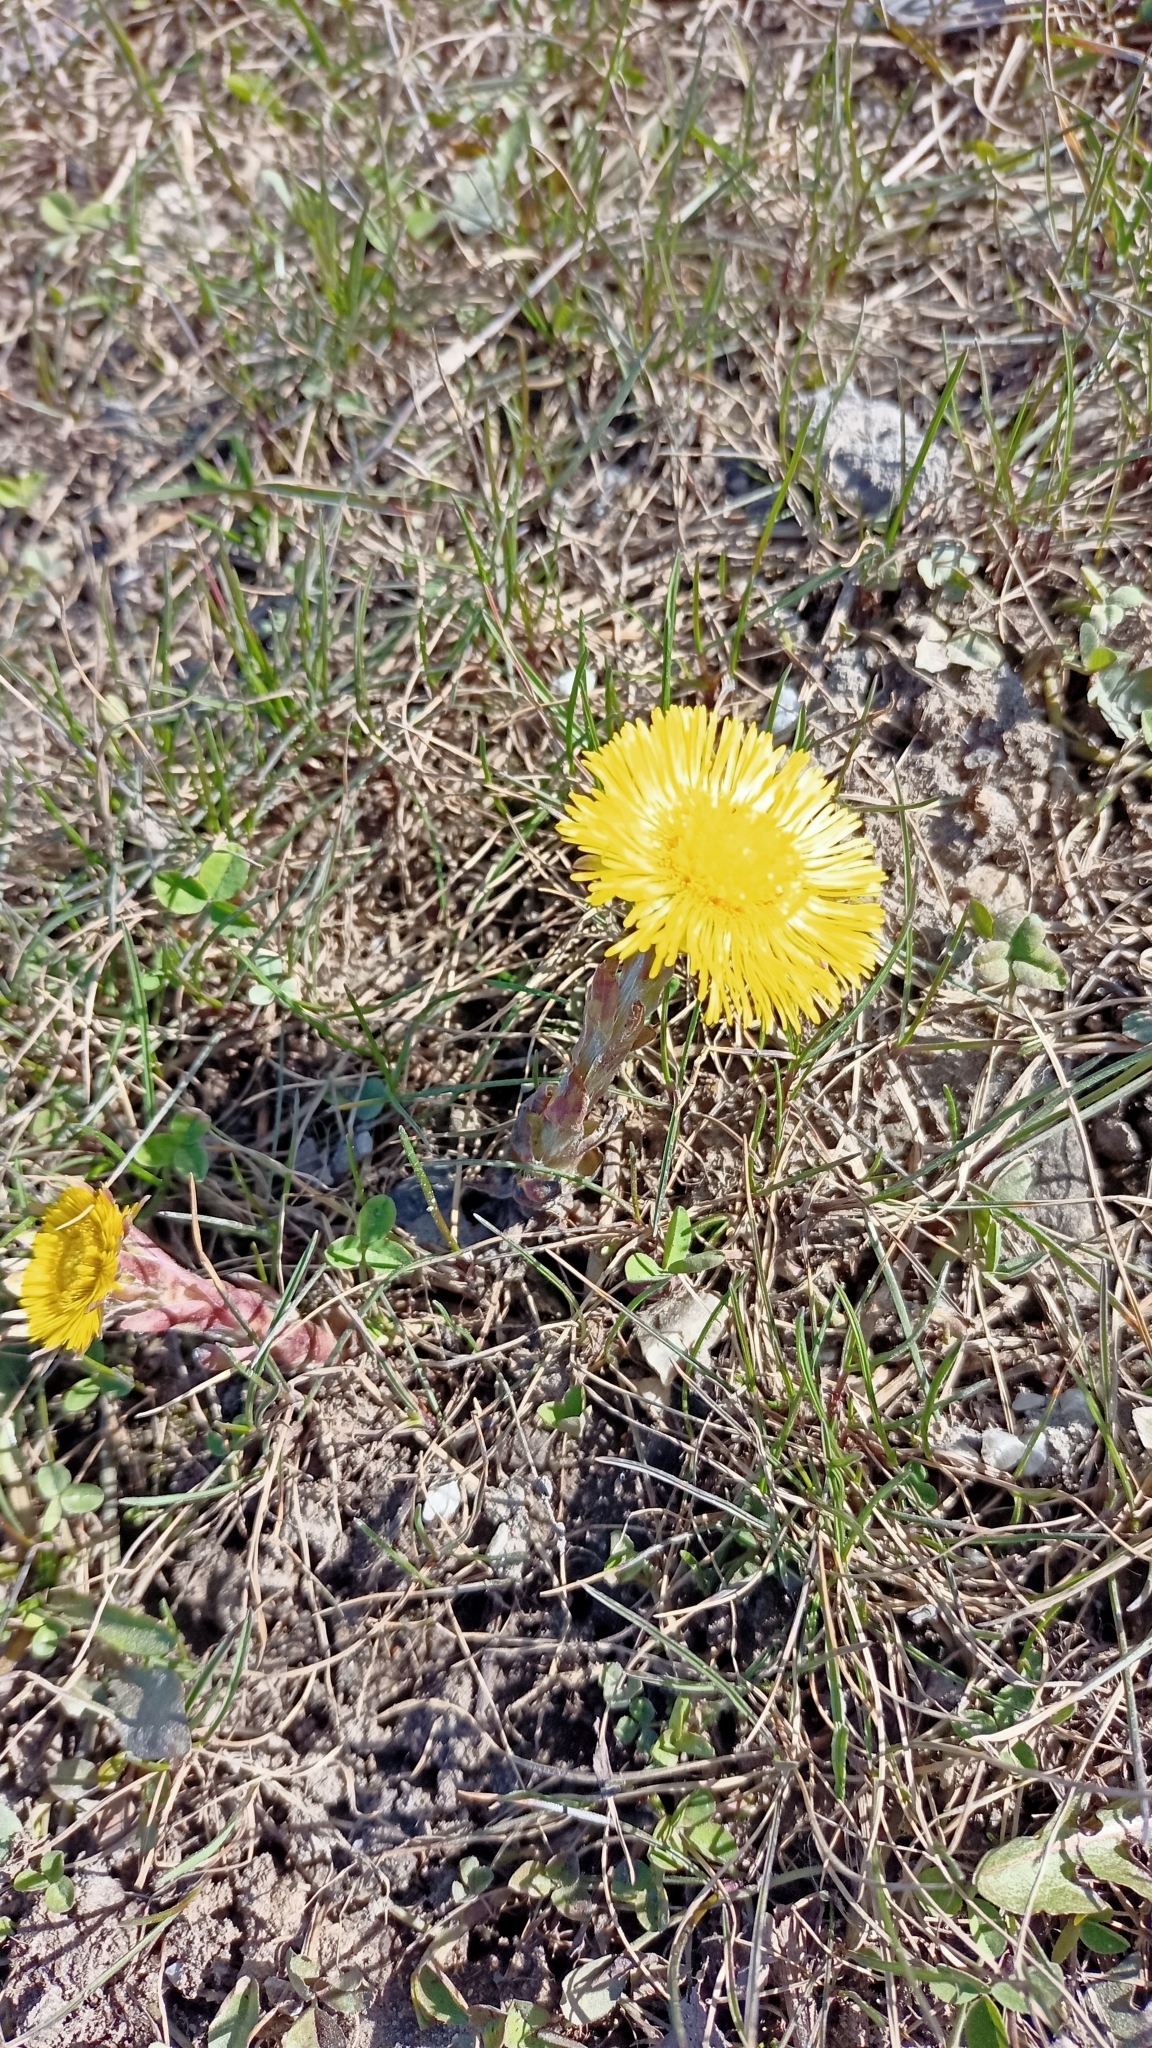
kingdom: Plantae
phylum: Tracheophyta
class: Magnoliopsida
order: Asterales
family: Asteraceae
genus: Tussilago
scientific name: Tussilago farfara
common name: Coltsfoot
